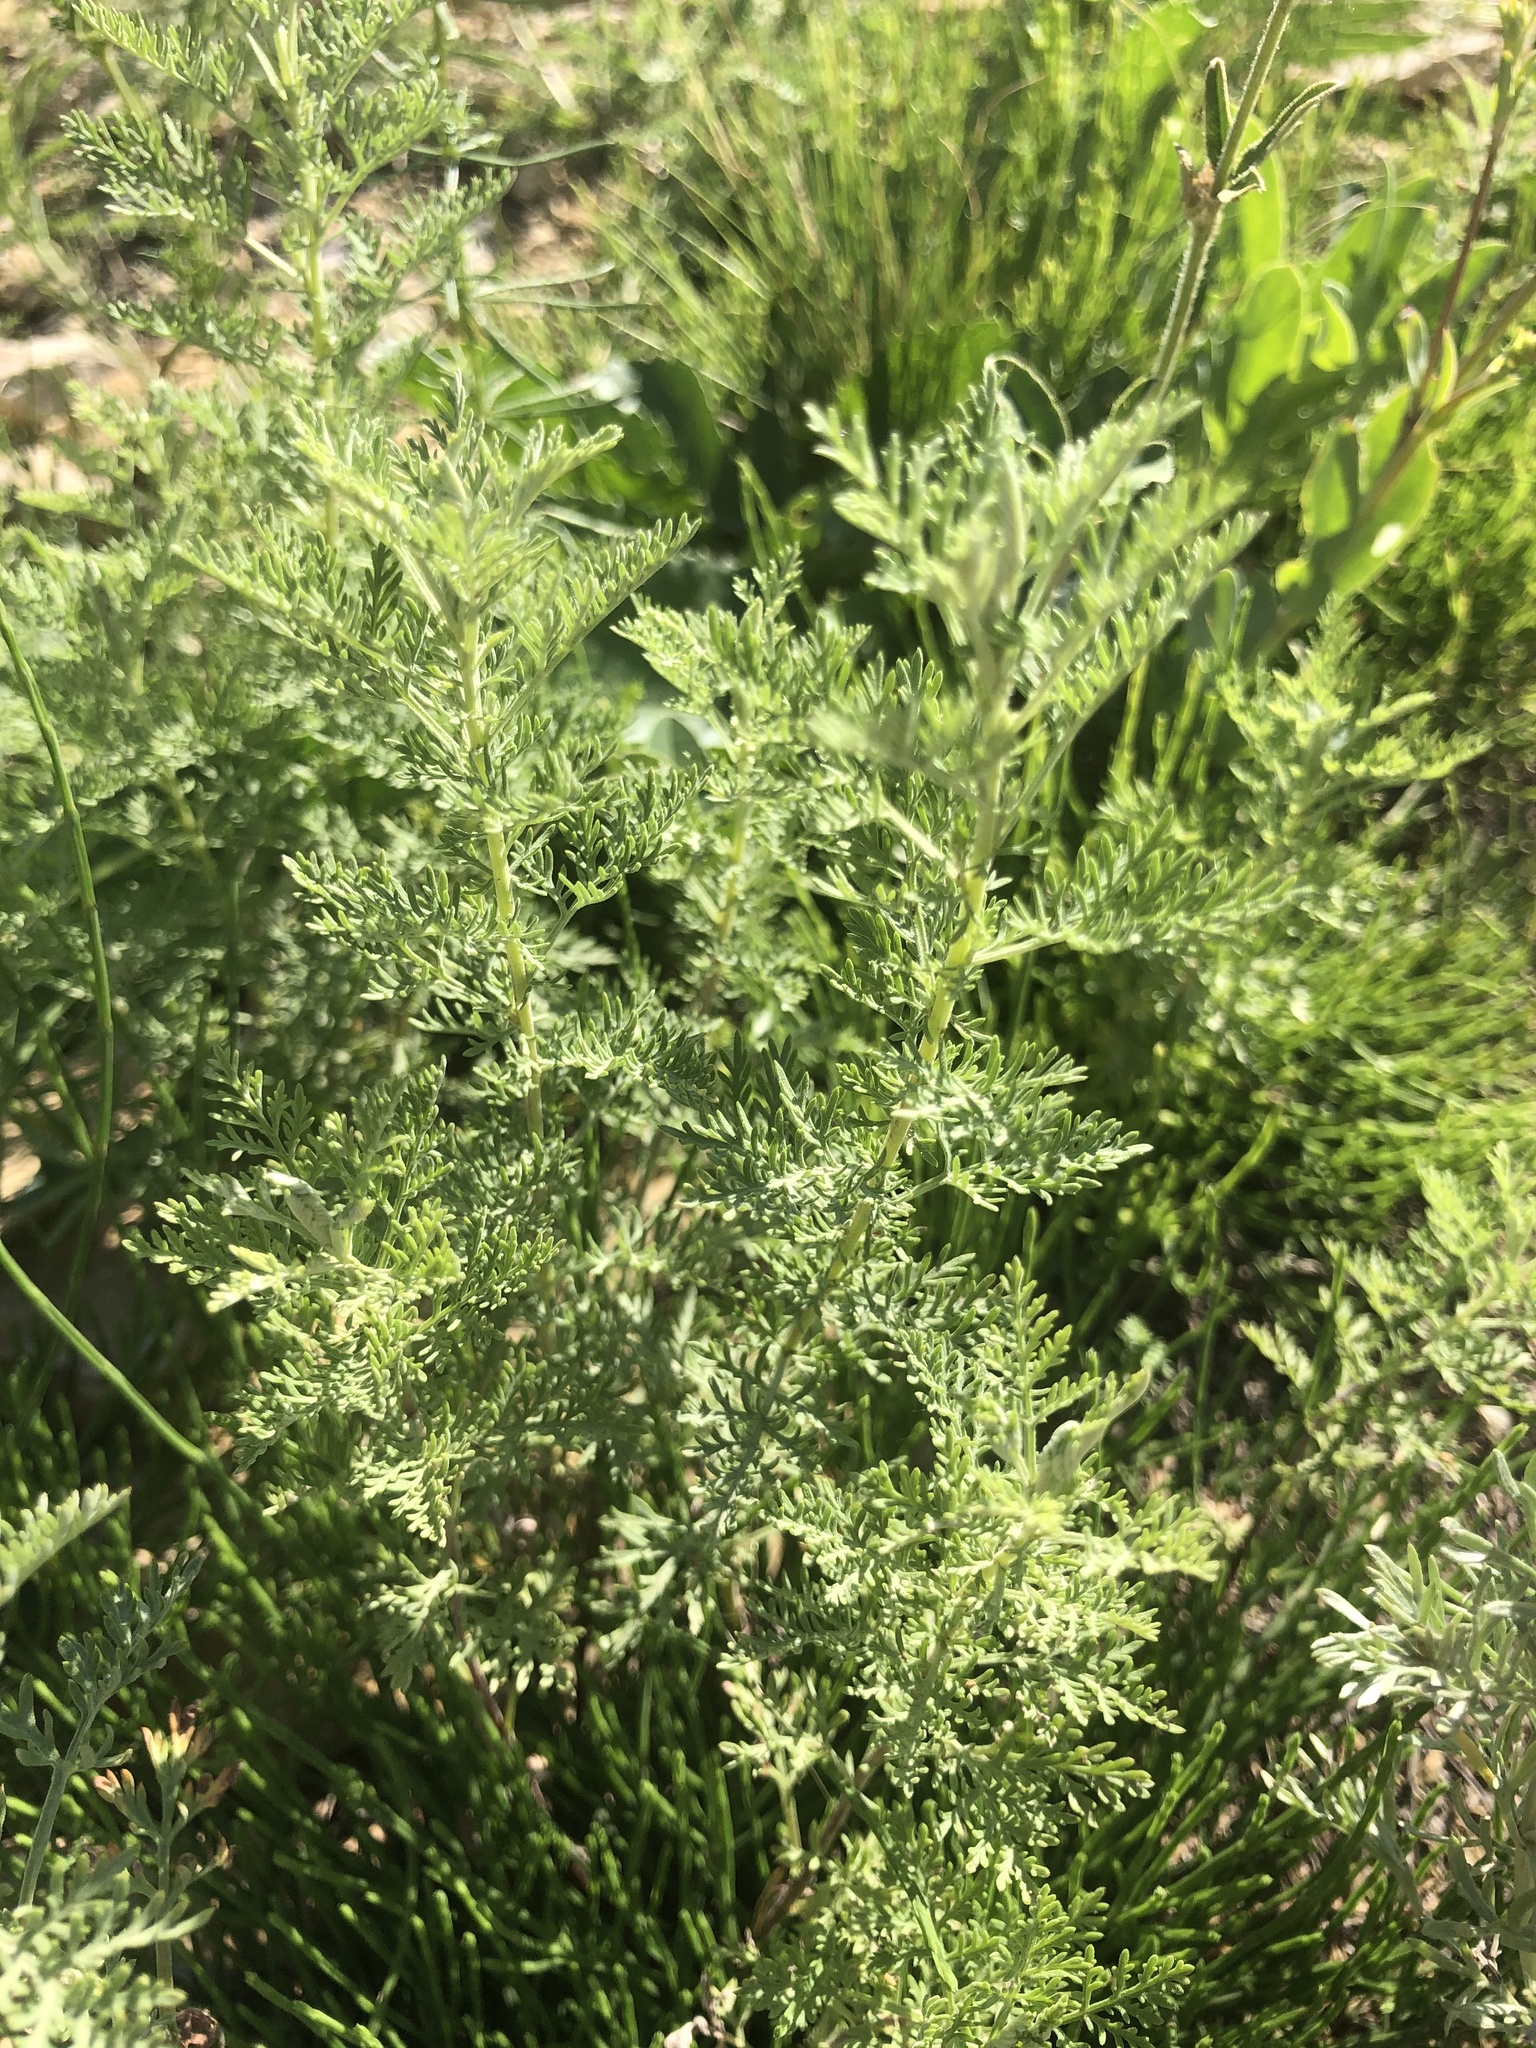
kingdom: Plantae
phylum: Tracheophyta
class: Magnoliopsida
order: Asterales
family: Asteraceae
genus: Artemisia
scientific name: Artemisia macrantha
